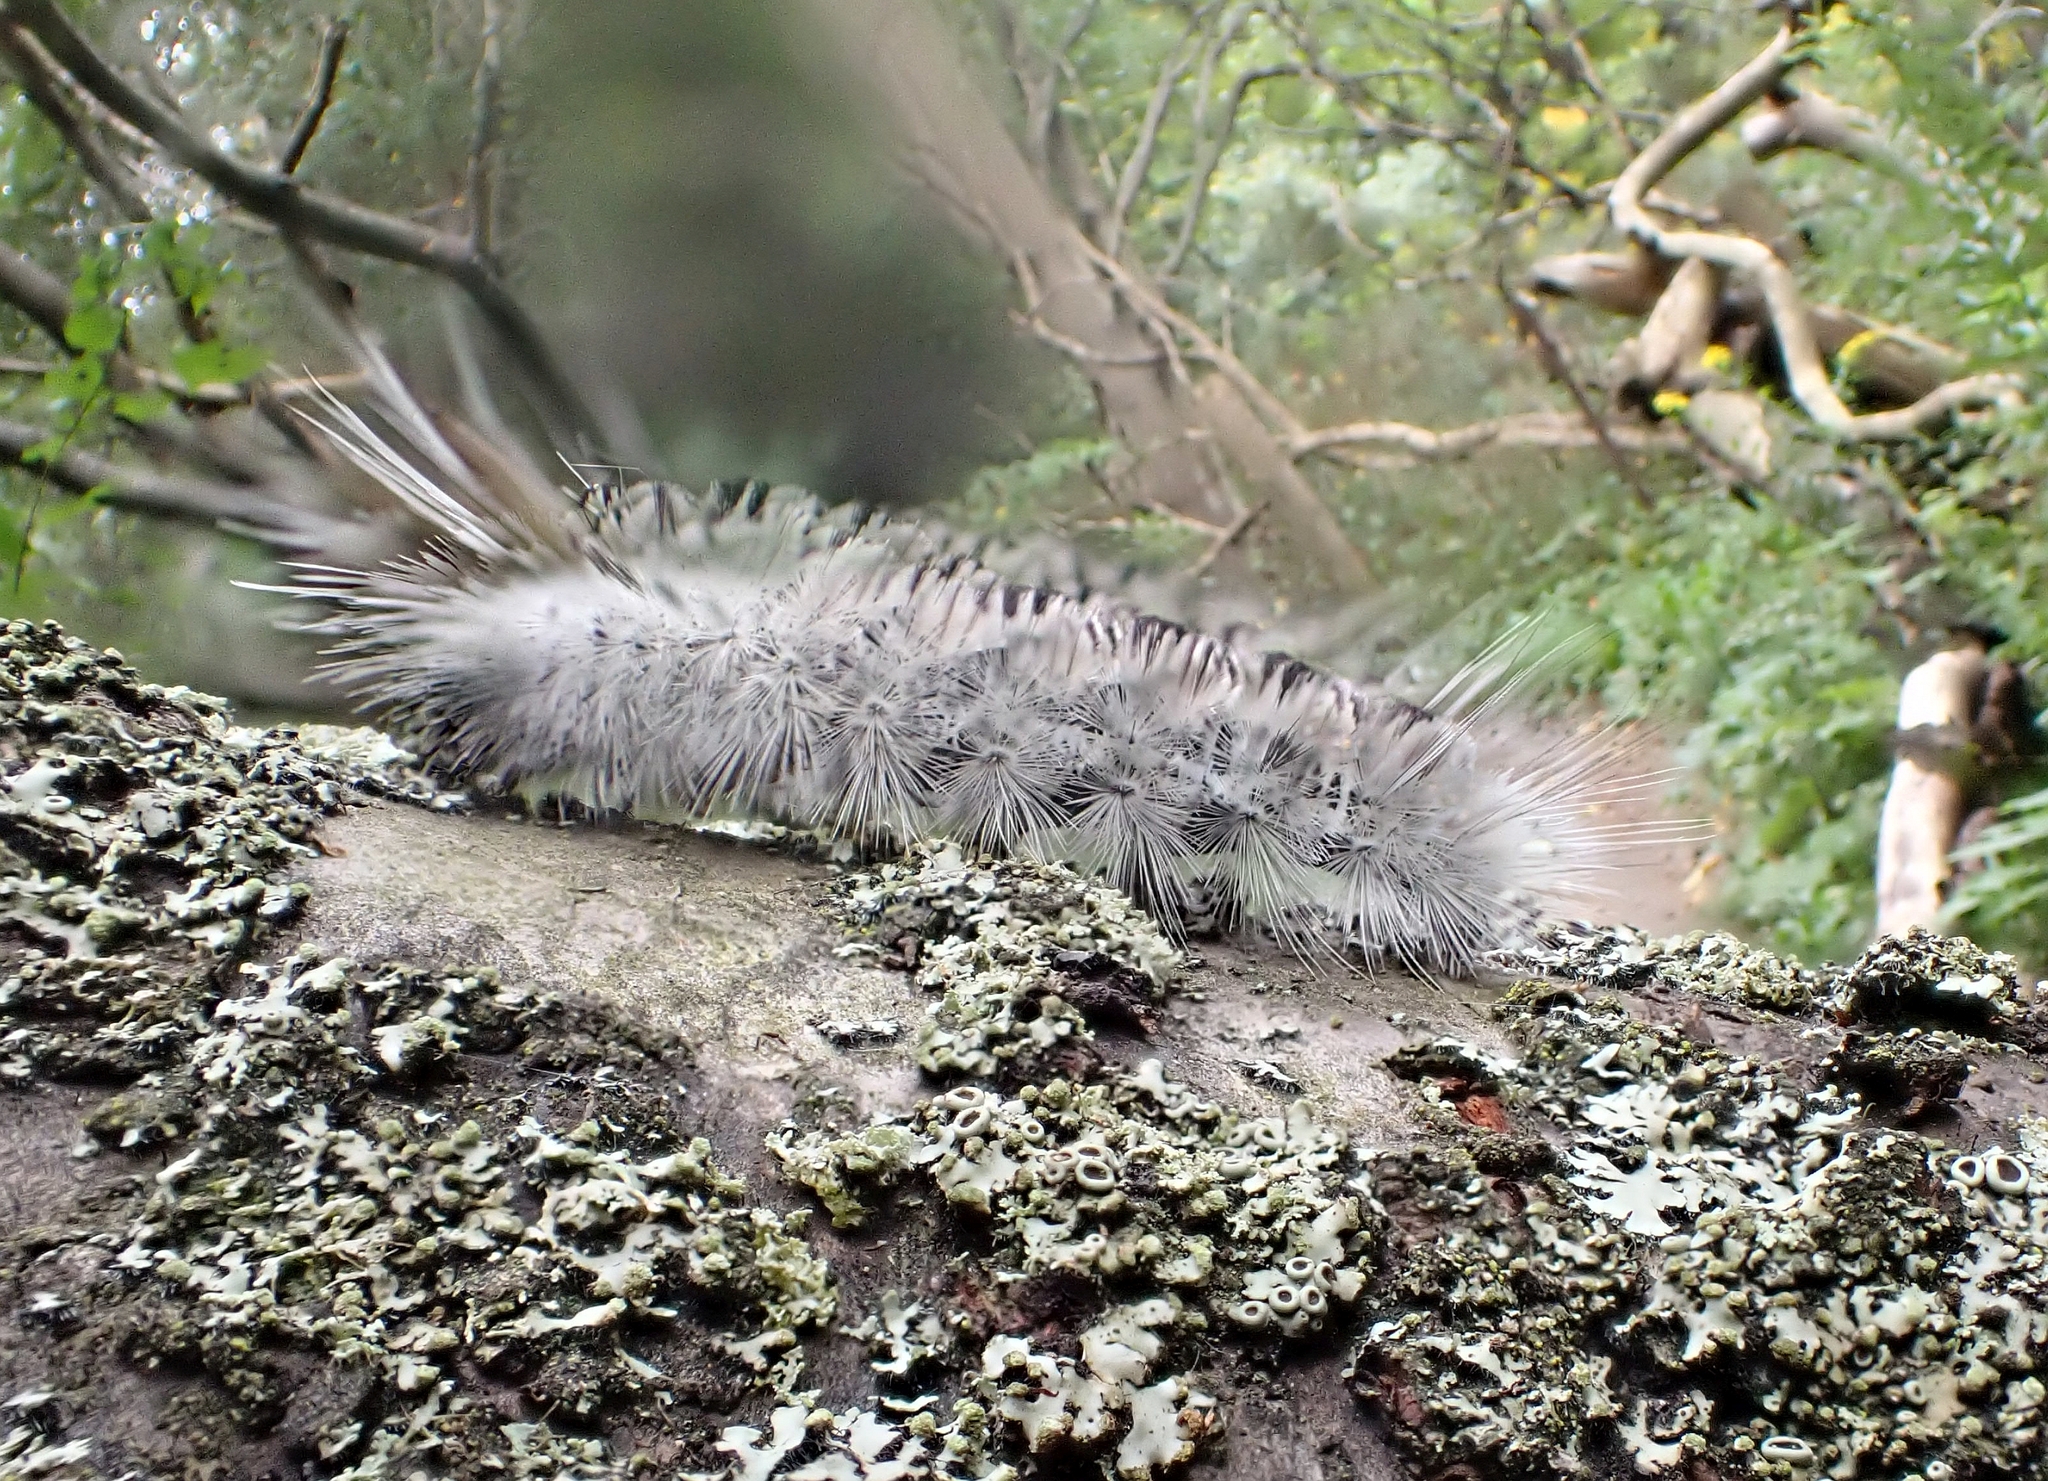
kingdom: Animalia
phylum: Arthropoda
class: Insecta
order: Lepidoptera
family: Erebidae
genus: Lophocampa
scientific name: Lophocampa caryae
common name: Hickory tussock moth
